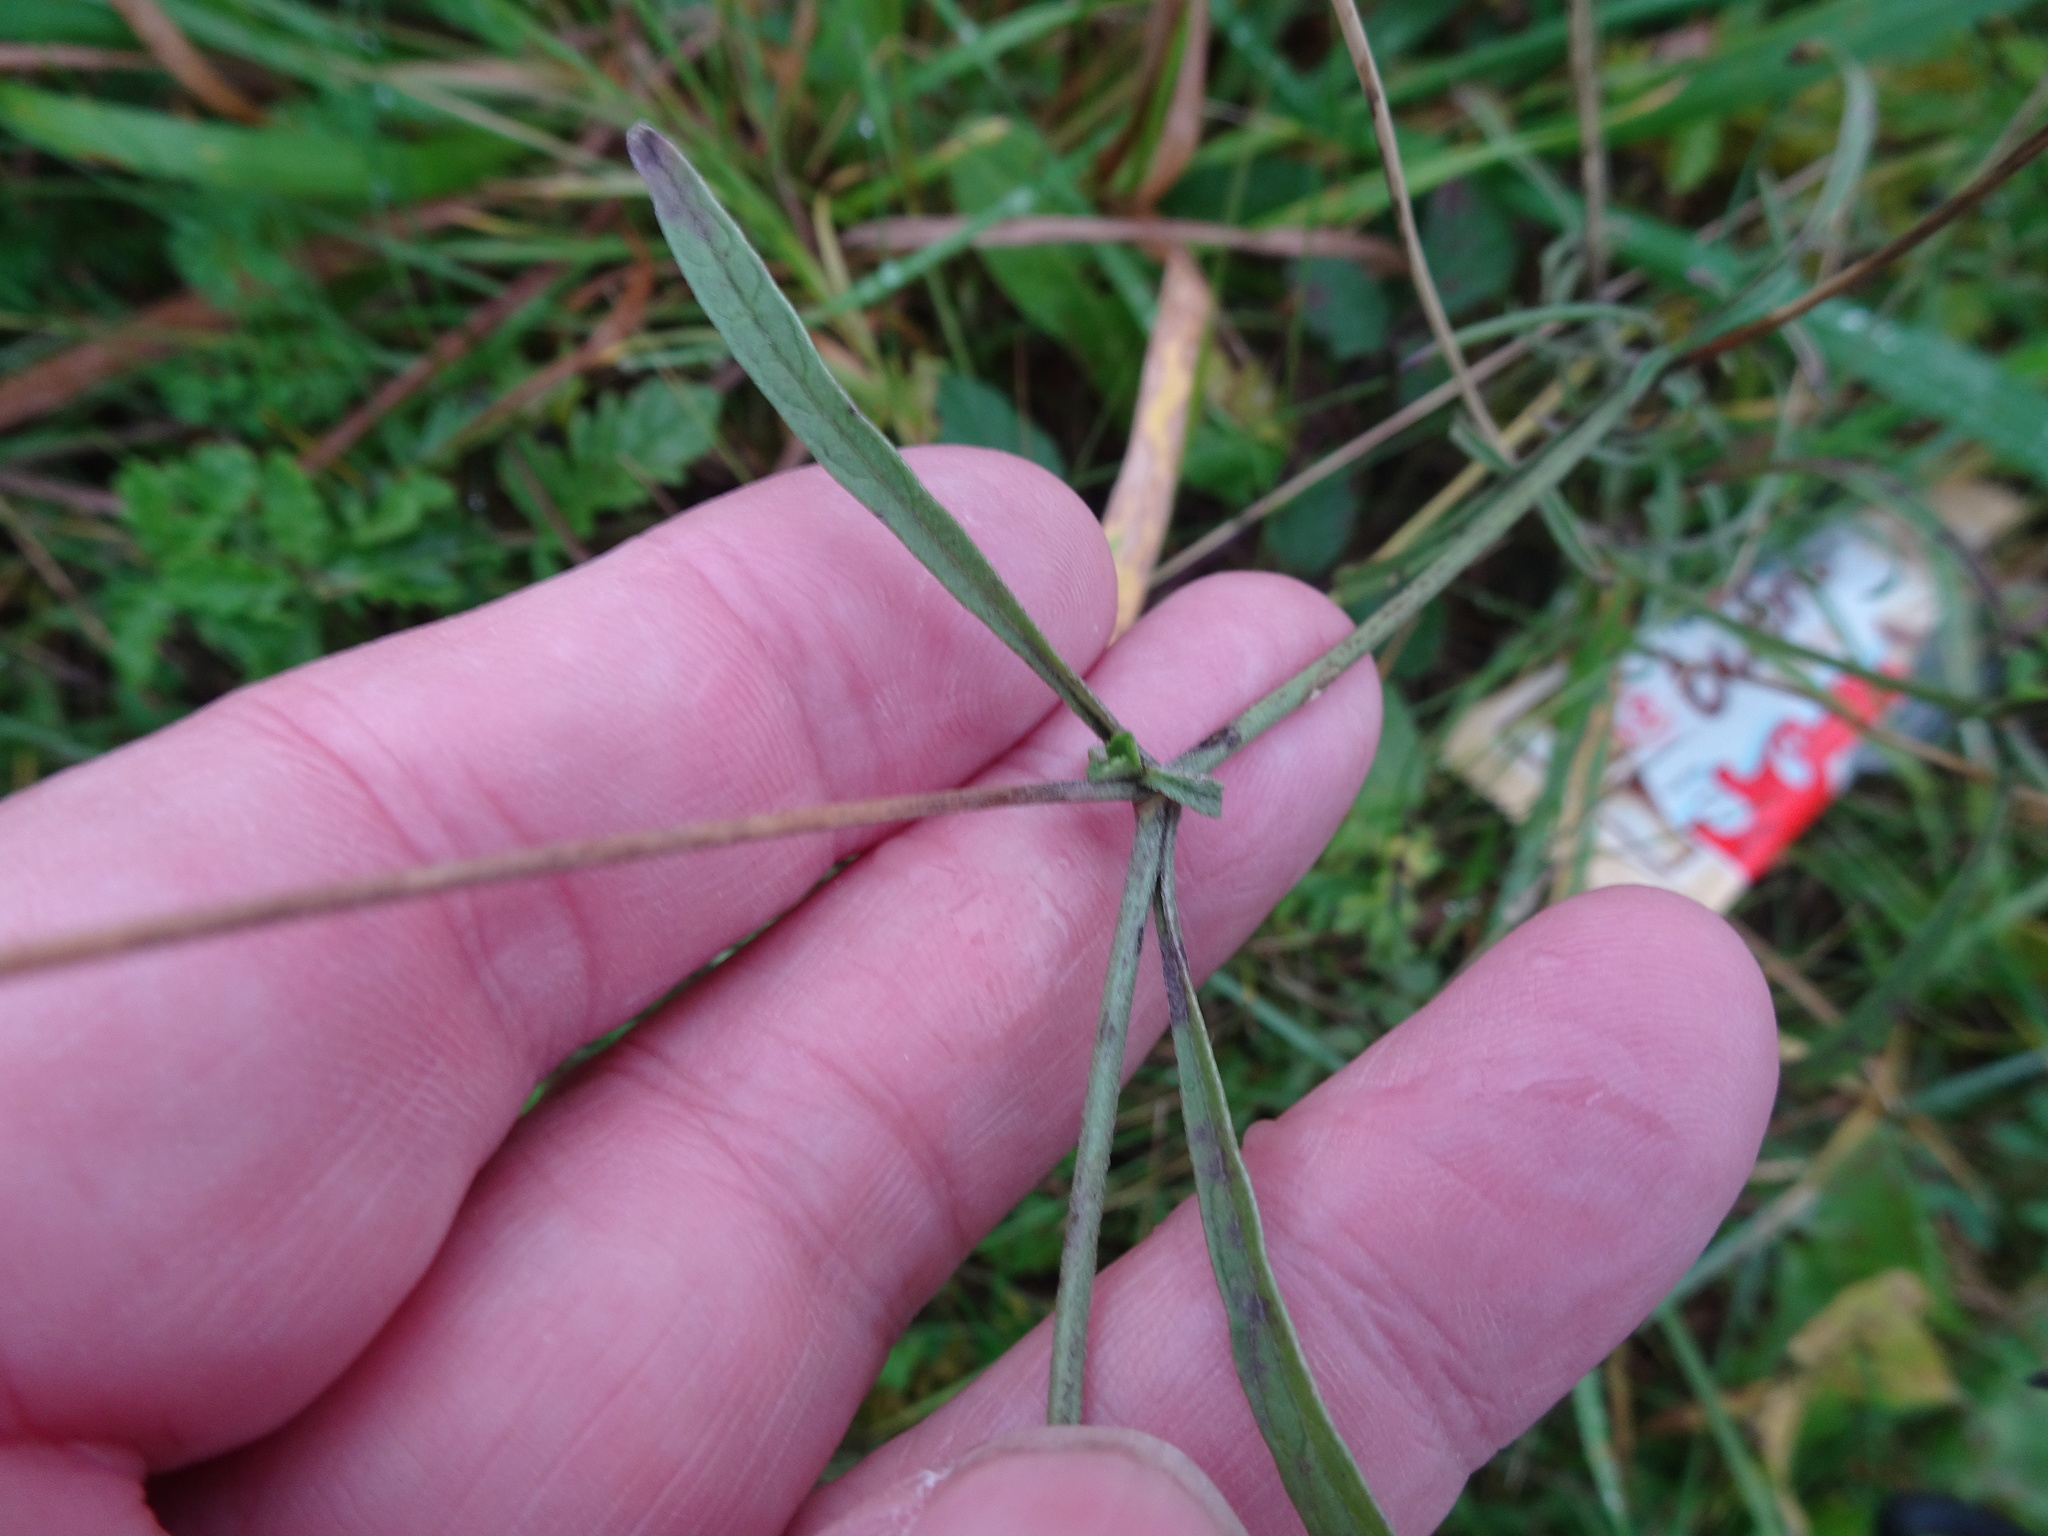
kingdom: Plantae
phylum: Tracheophyta
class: Magnoliopsida
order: Dipsacales
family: Caprifoliaceae
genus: Scabiosa
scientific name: Scabiosa columbaria
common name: Small scabious
